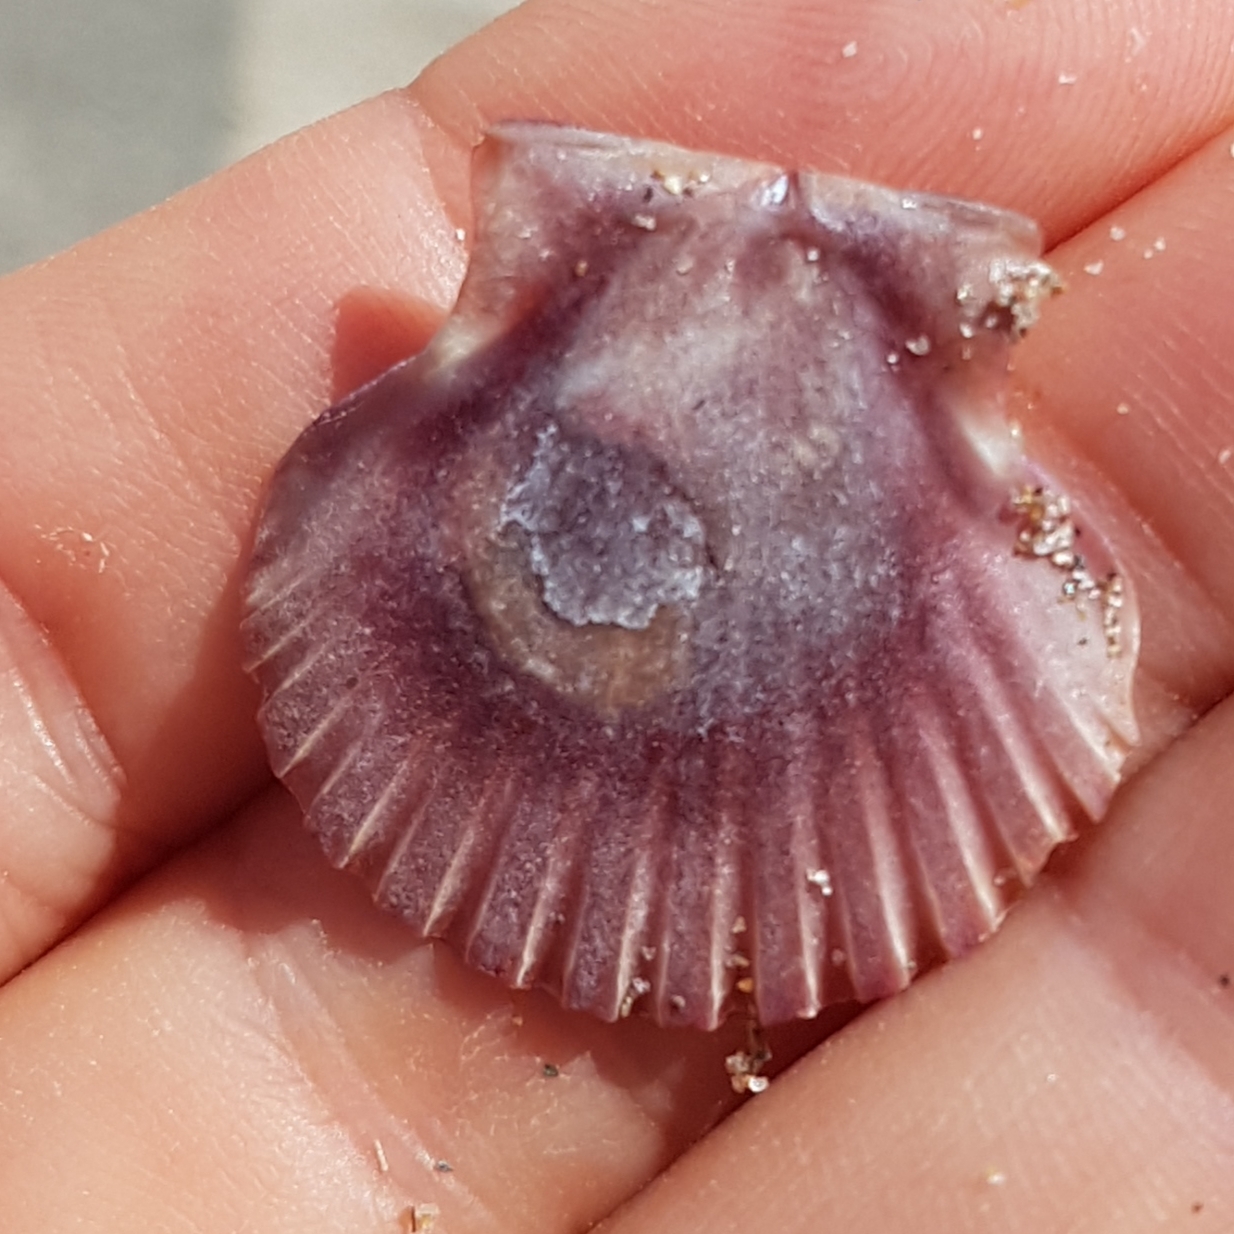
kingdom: Animalia
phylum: Mollusca
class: Bivalvia
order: Pectinida
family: Pectinidae
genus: Pecten
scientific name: Pecten jacobaeus
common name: St.james's scallop
